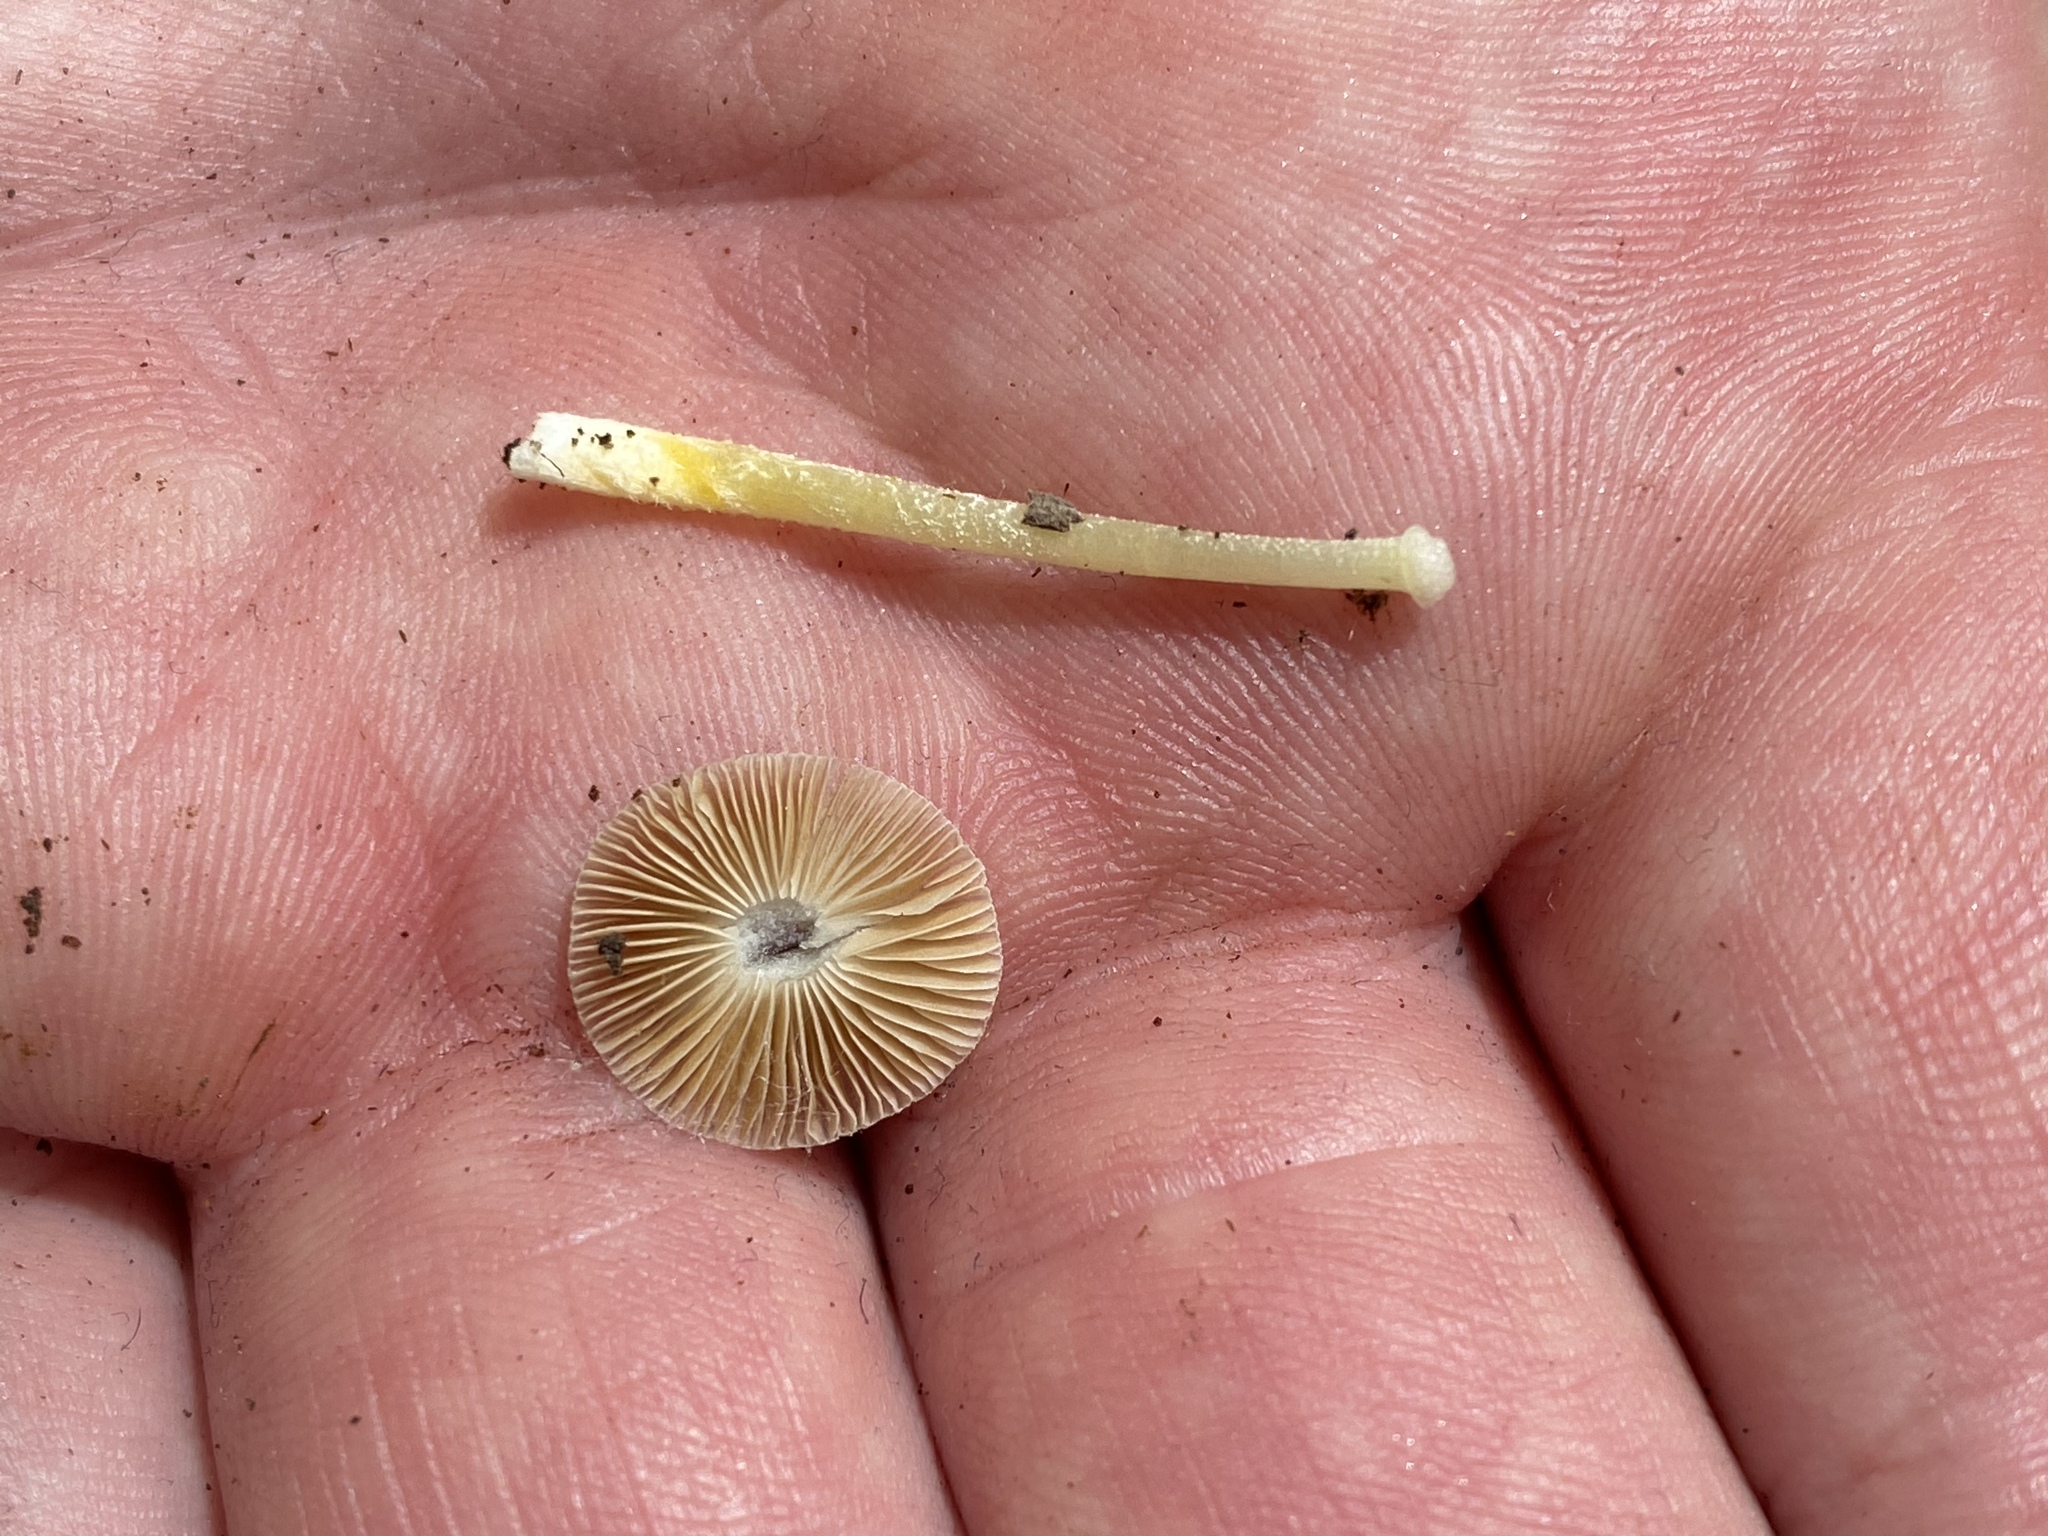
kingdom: Fungi
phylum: Basidiomycota
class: Agaricomycetes
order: Agaricales
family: Bolbitiaceae
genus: Bolbitius
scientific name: Bolbitius titubans
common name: Yellow fieldcap
